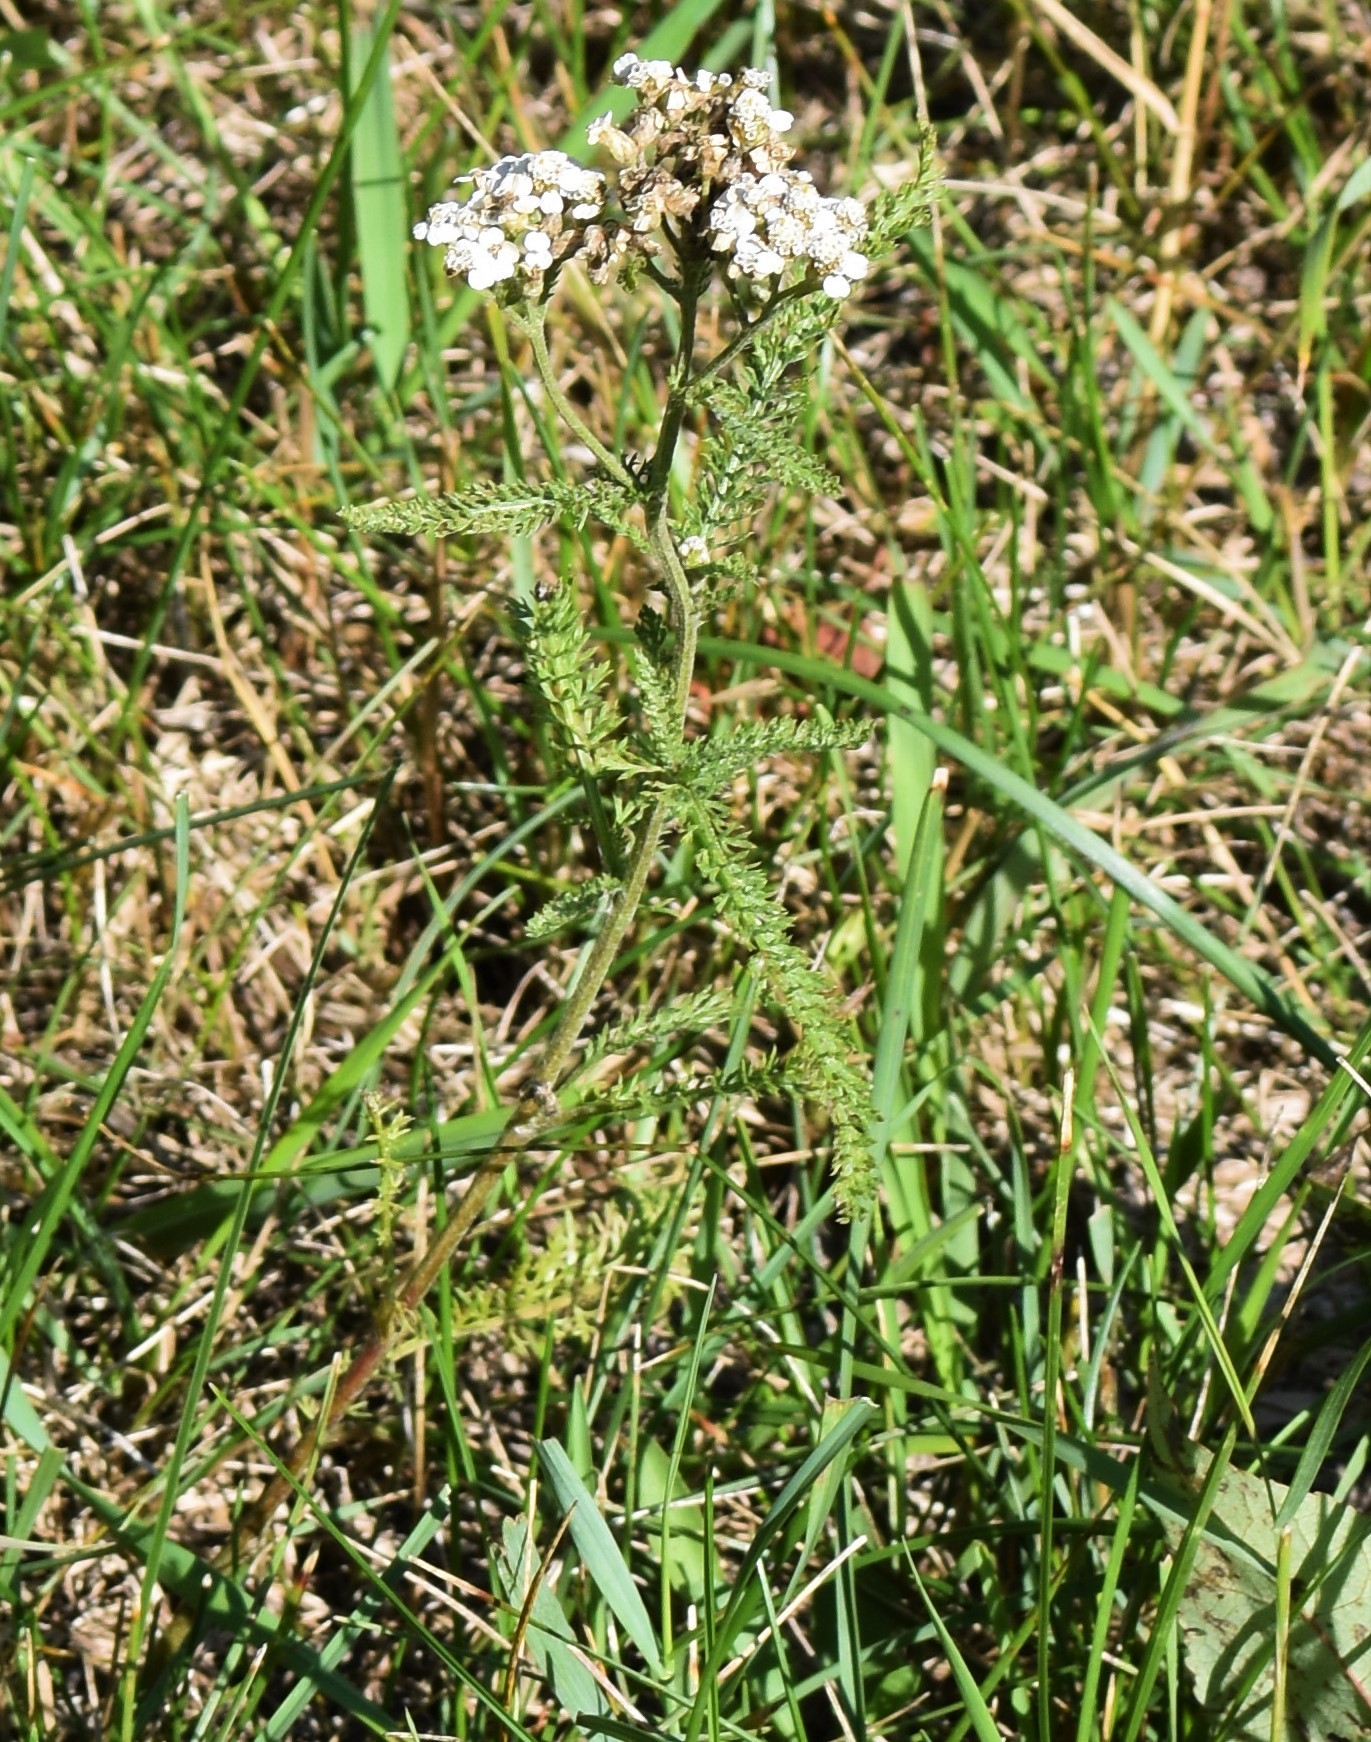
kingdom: Plantae
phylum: Tracheophyta
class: Magnoliopsida
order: Asterales
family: Asteraceae
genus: Achillea
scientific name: Achillea millefolium
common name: Yarrow
